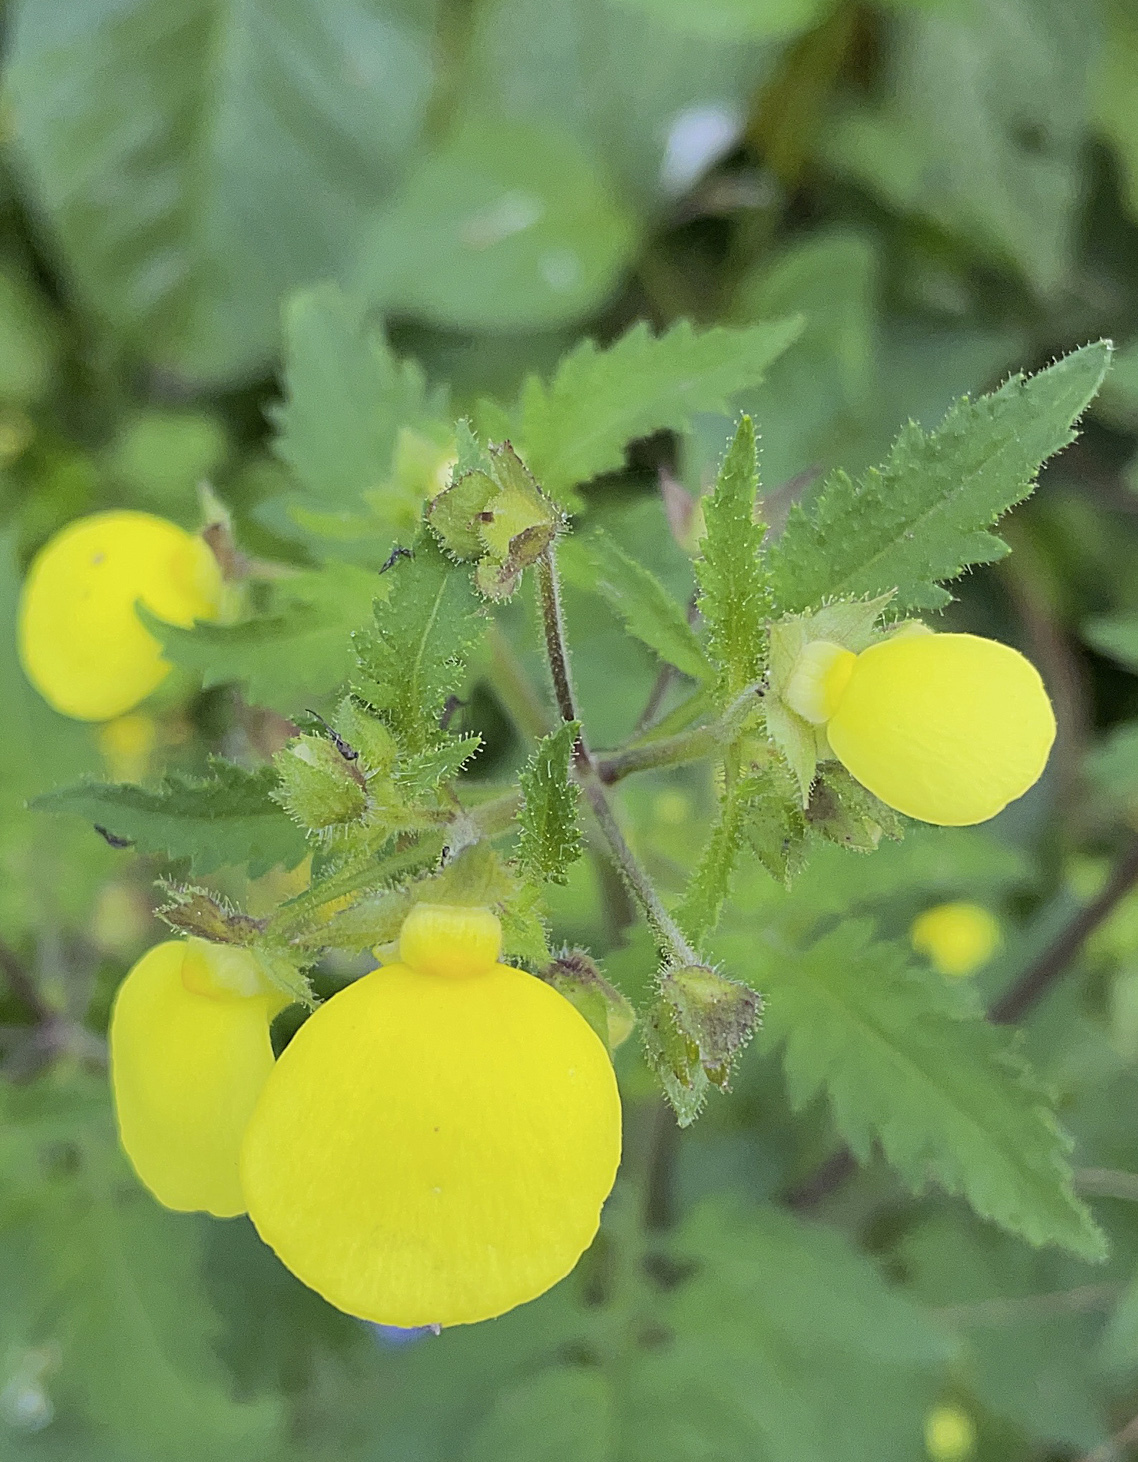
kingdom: Plantae
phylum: Tracheophyta
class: Magnoliopsida
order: Lamiales
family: Calceolariaceae
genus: Calceolaria
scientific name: Calceolaria tripartita
